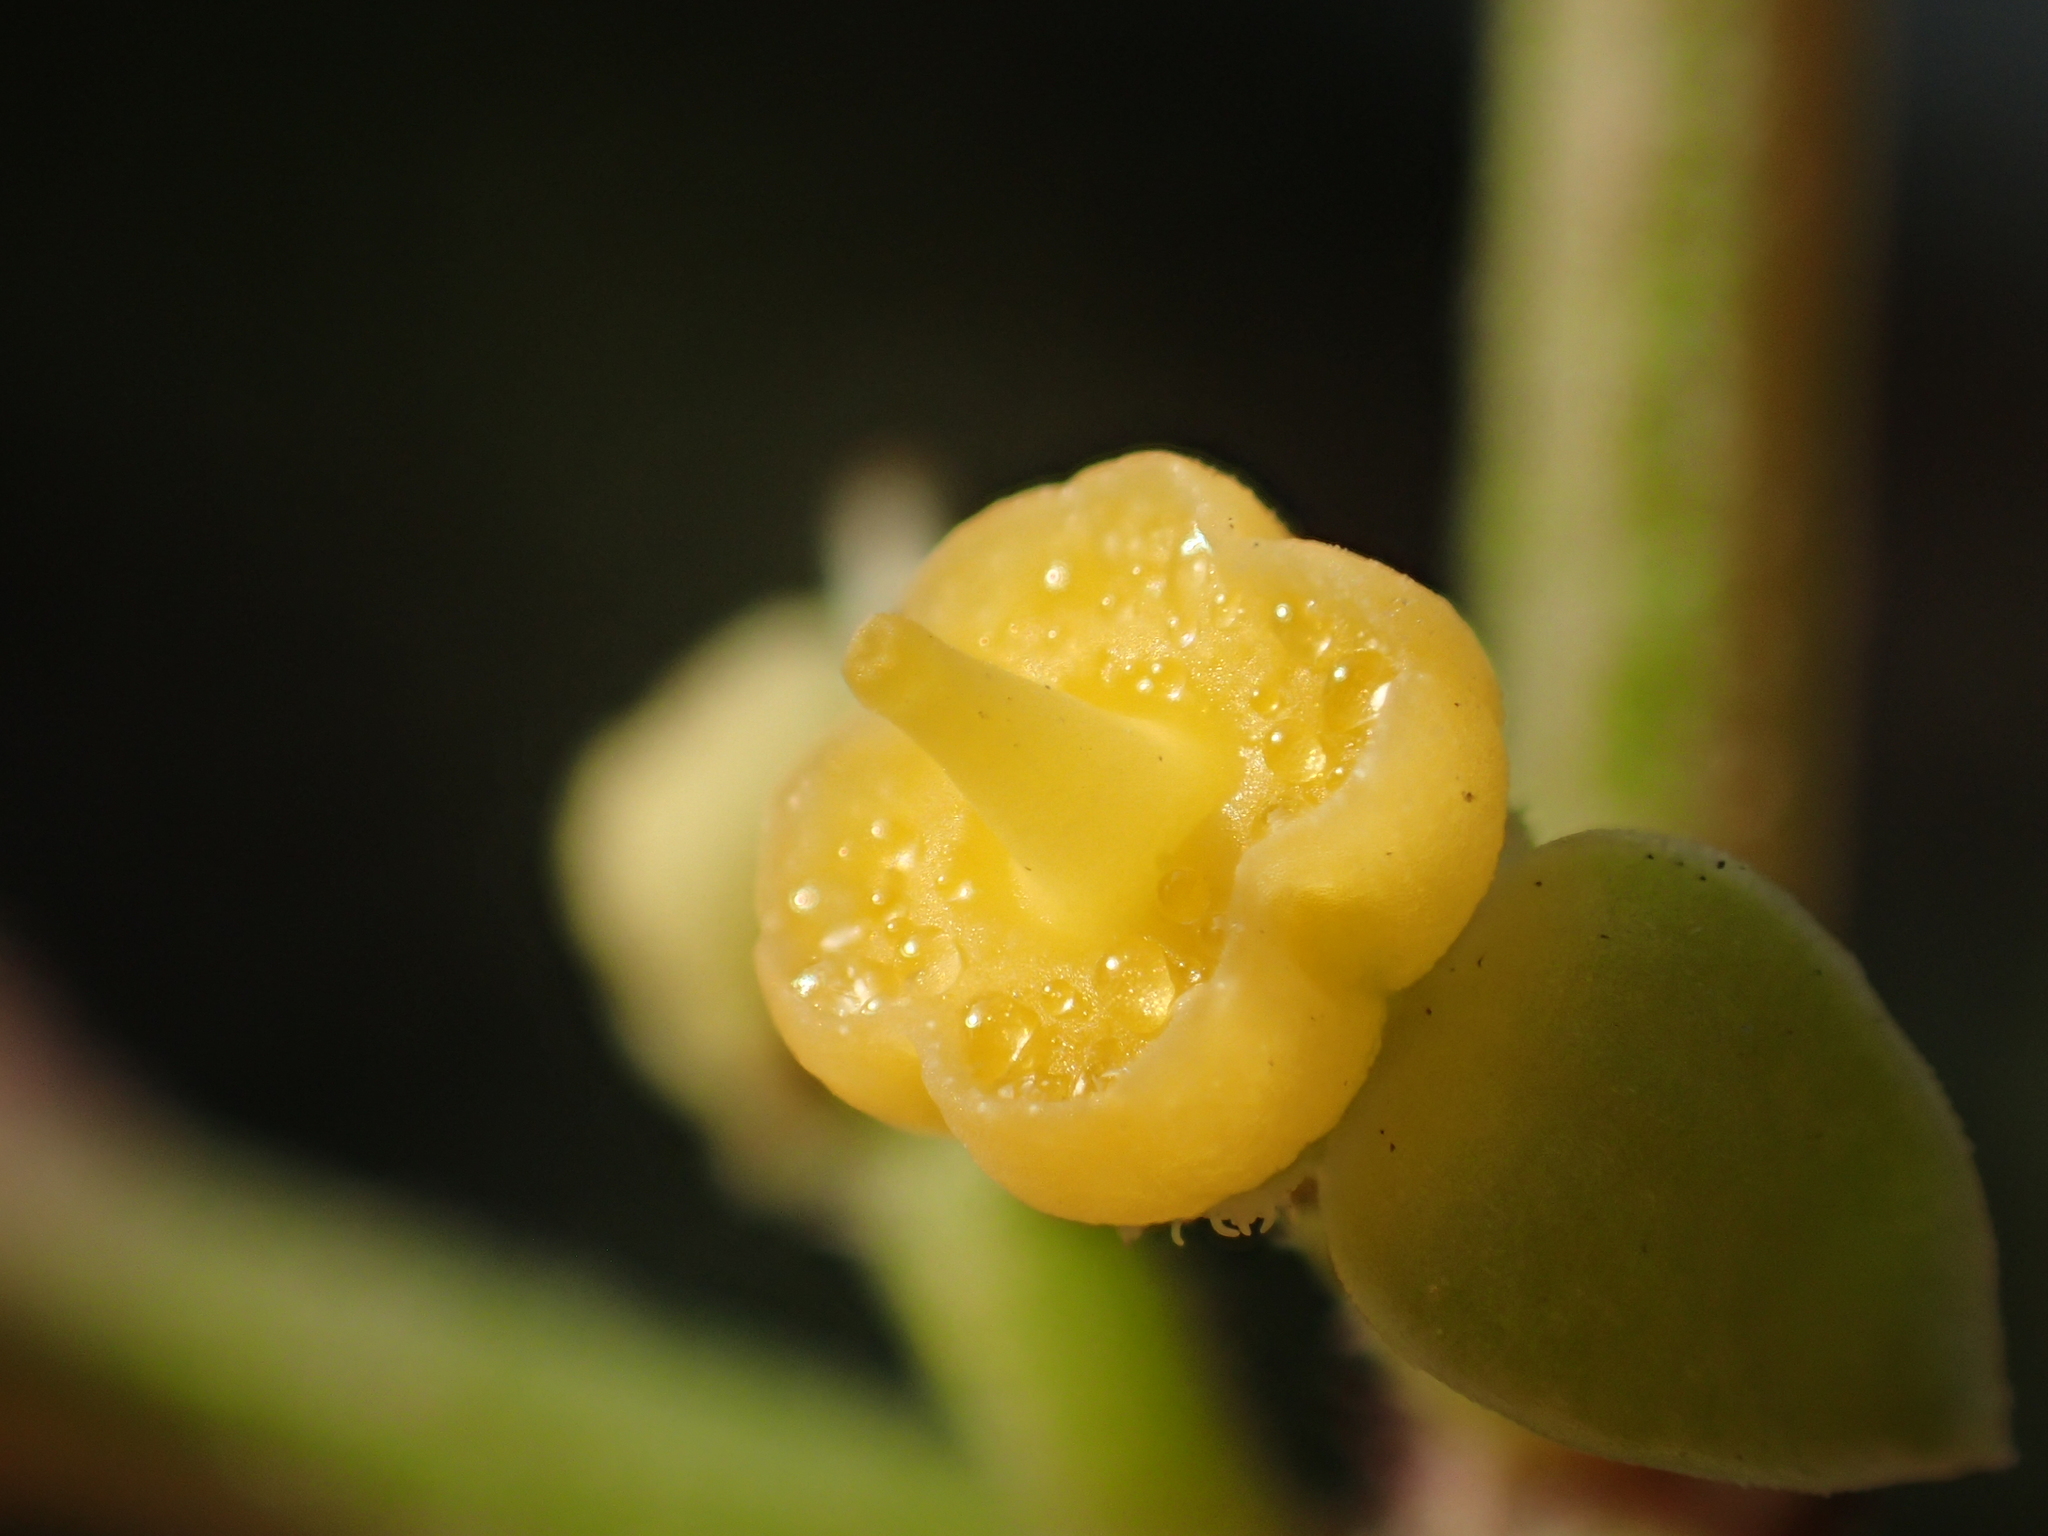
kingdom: Plantae
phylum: Tracheophyta
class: Magnoliopsida
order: Vitales
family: Vitaceae
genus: Causonis
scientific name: Causonis japonica
